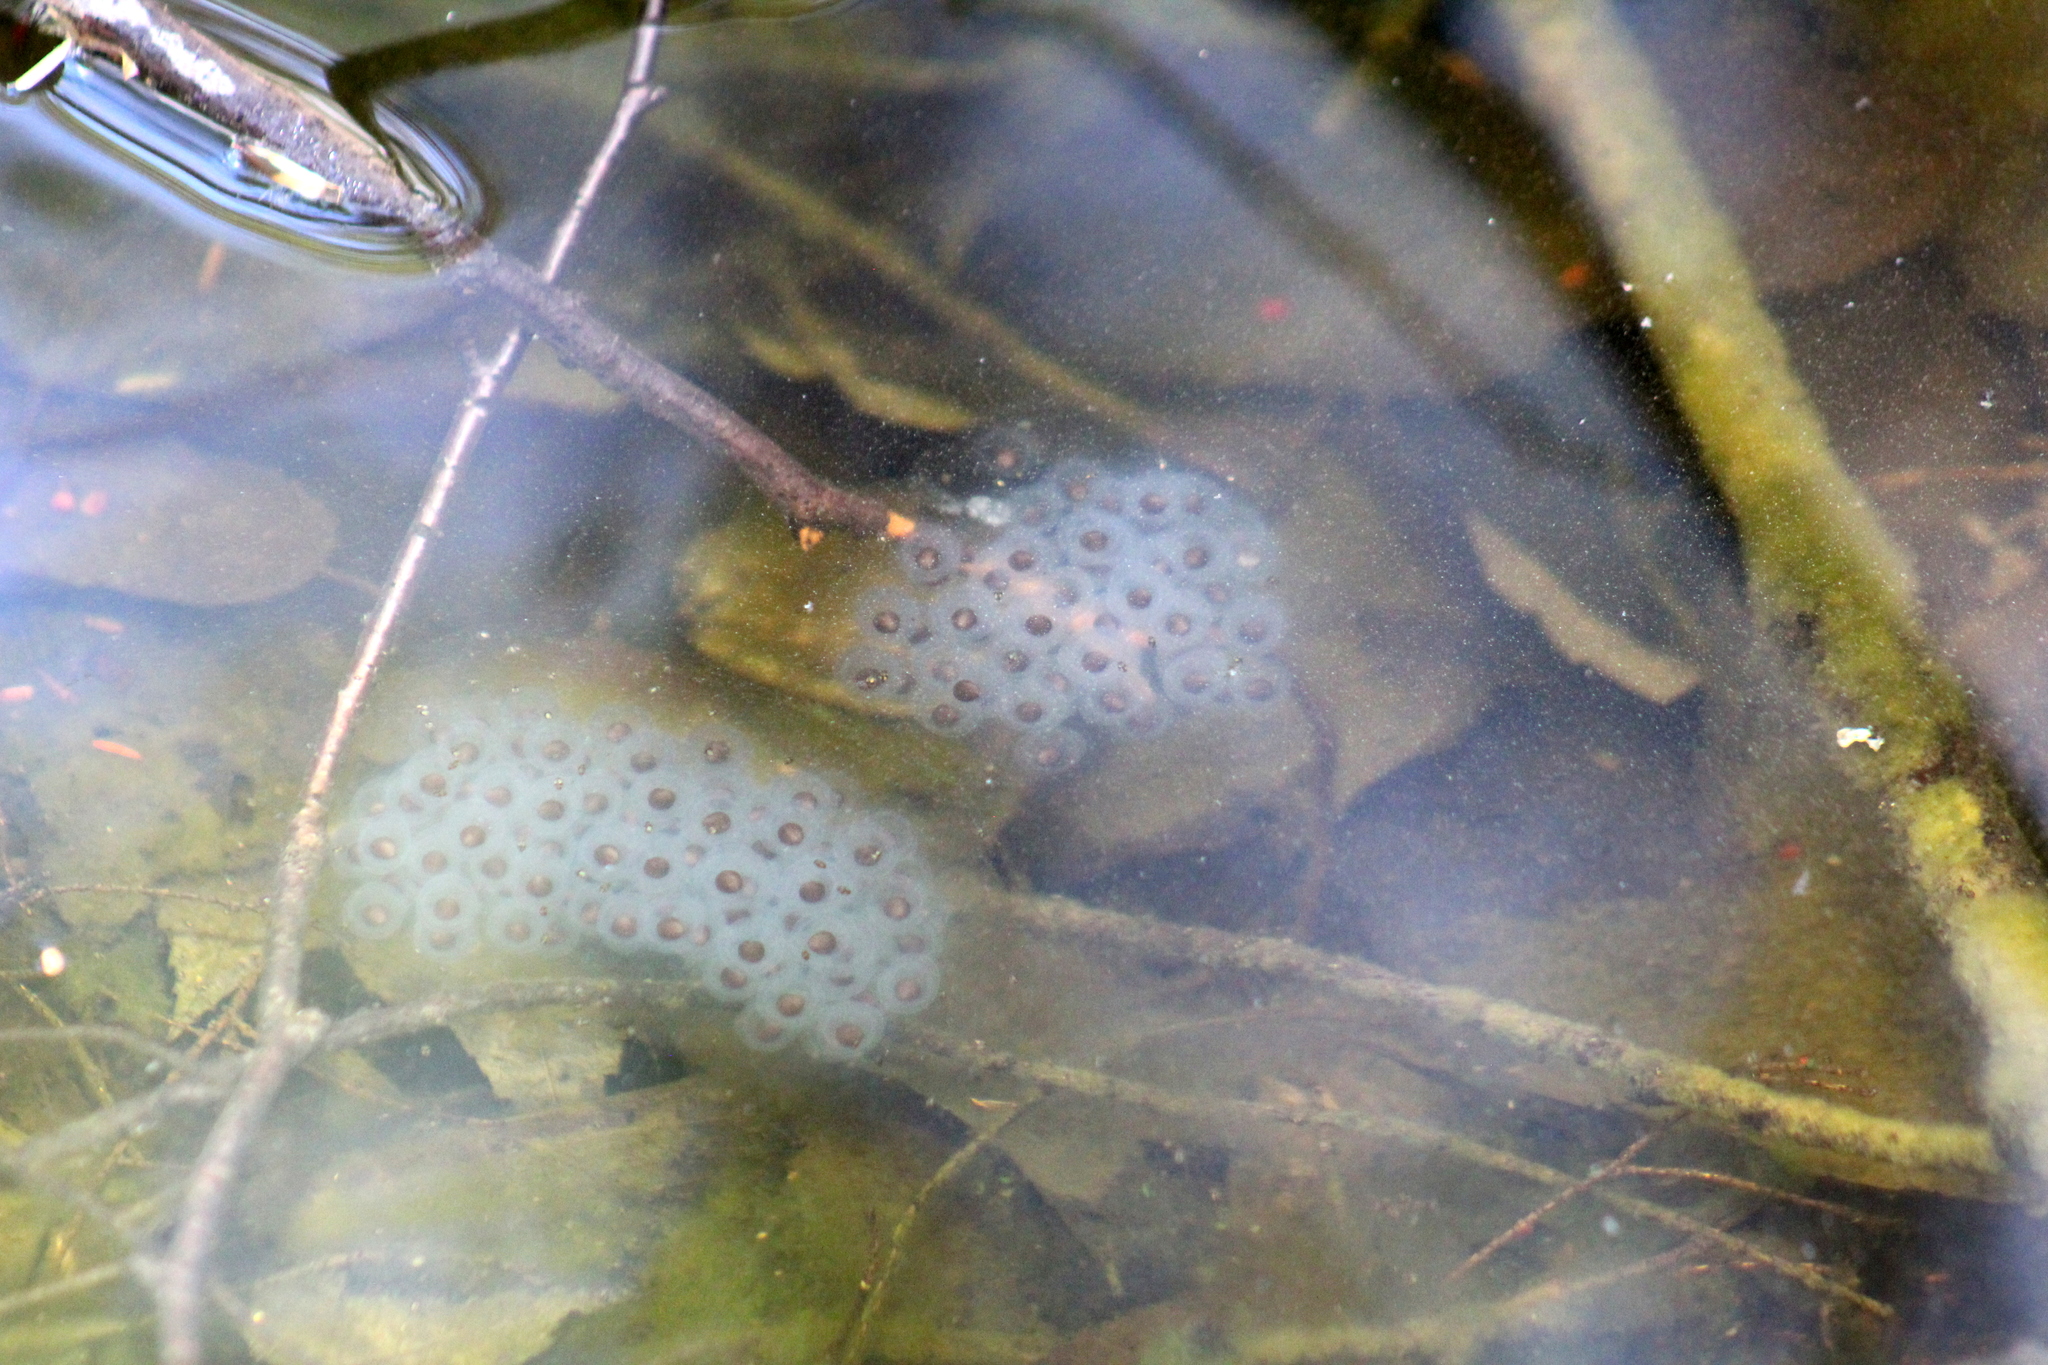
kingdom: Animalia
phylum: Chordata
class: Amphibia
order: Caudata
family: Ambystomatidae
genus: Ambystoma
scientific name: Ambystoma maculatum
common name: Spotted salamander
